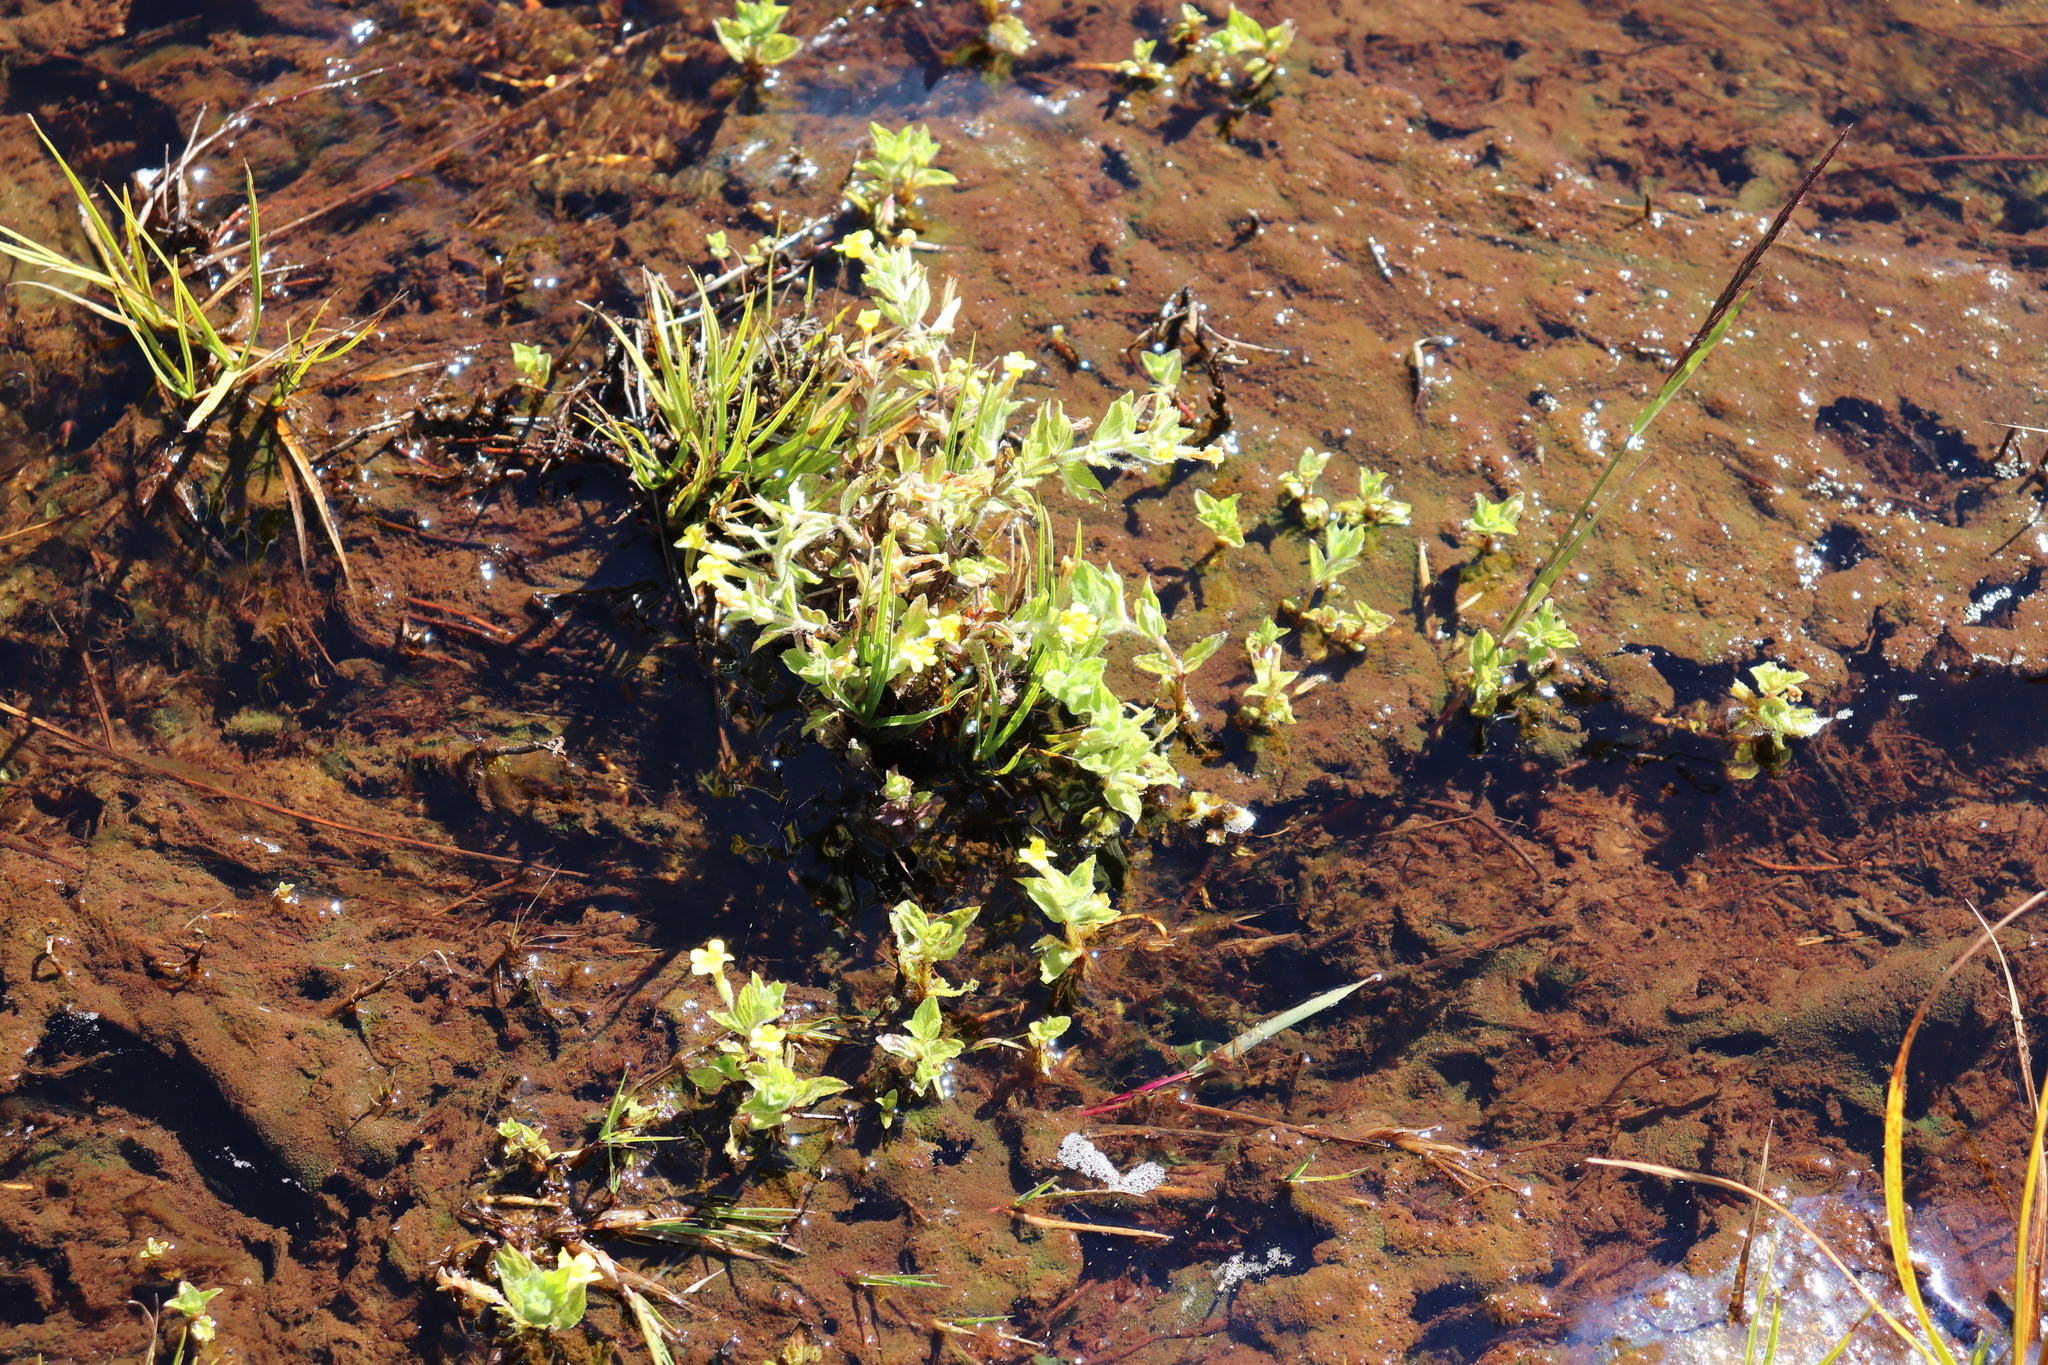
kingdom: Plantae
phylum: Tracheophyta
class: Magnoliopsida
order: Lamiales
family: Phrymaceae
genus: Erythranthe
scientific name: Erythranthe moschata
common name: Muskflower
